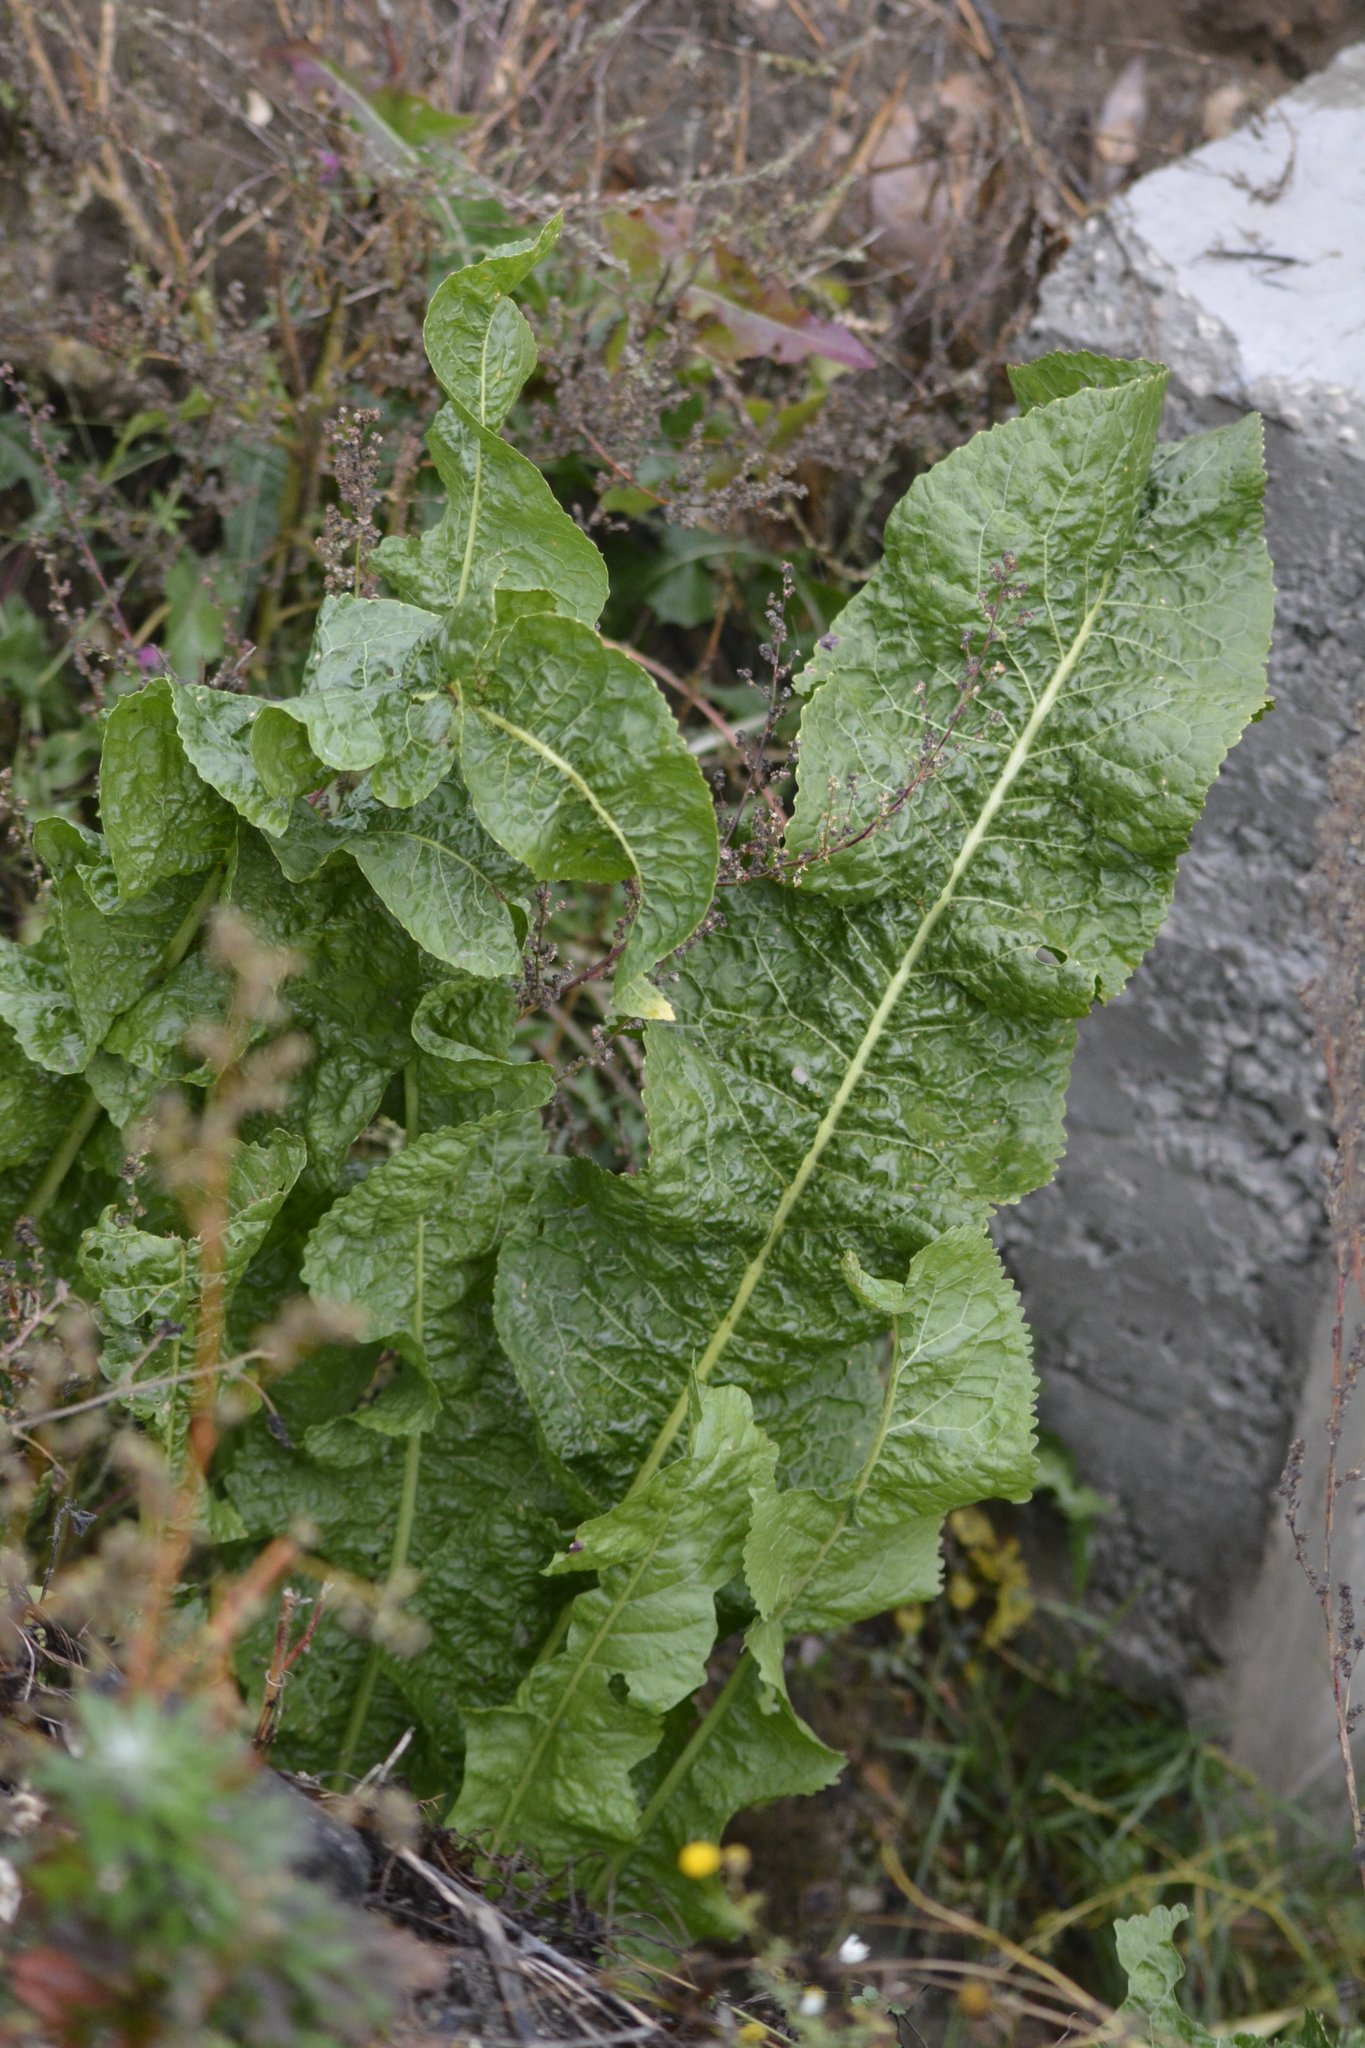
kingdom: Plantae
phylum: Tracheophyta
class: Magnoliopsida
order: Brassicales
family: Brassicaceae
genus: Armoracia
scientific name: Armoracia rusticana
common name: Horseradish
